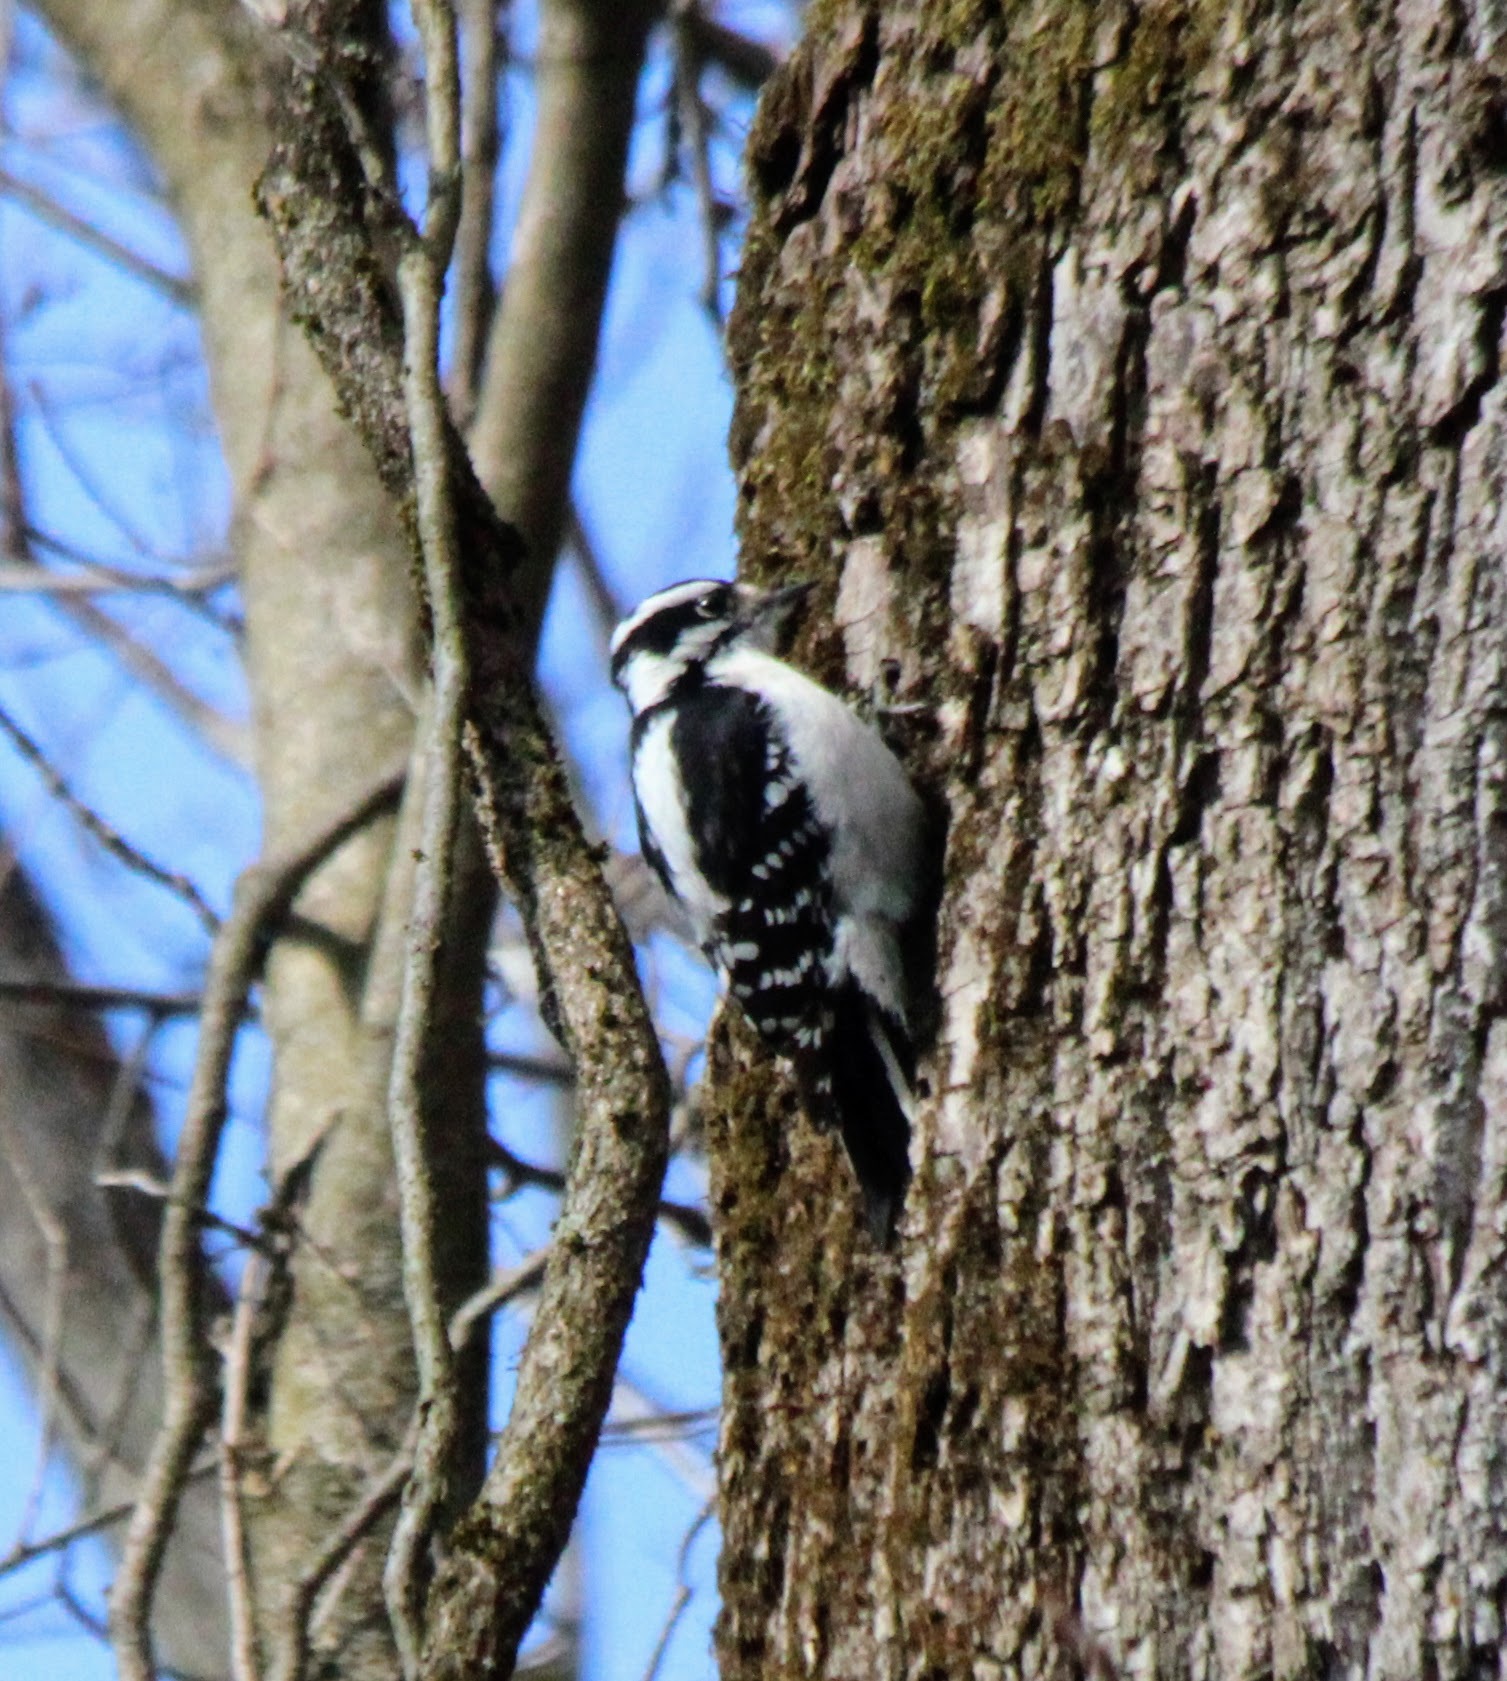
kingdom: Animalia
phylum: Chordata
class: Aves
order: Piciformes
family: Picidae
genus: Dryobates
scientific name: Dryobates pubescens
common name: Downy woodpecker
